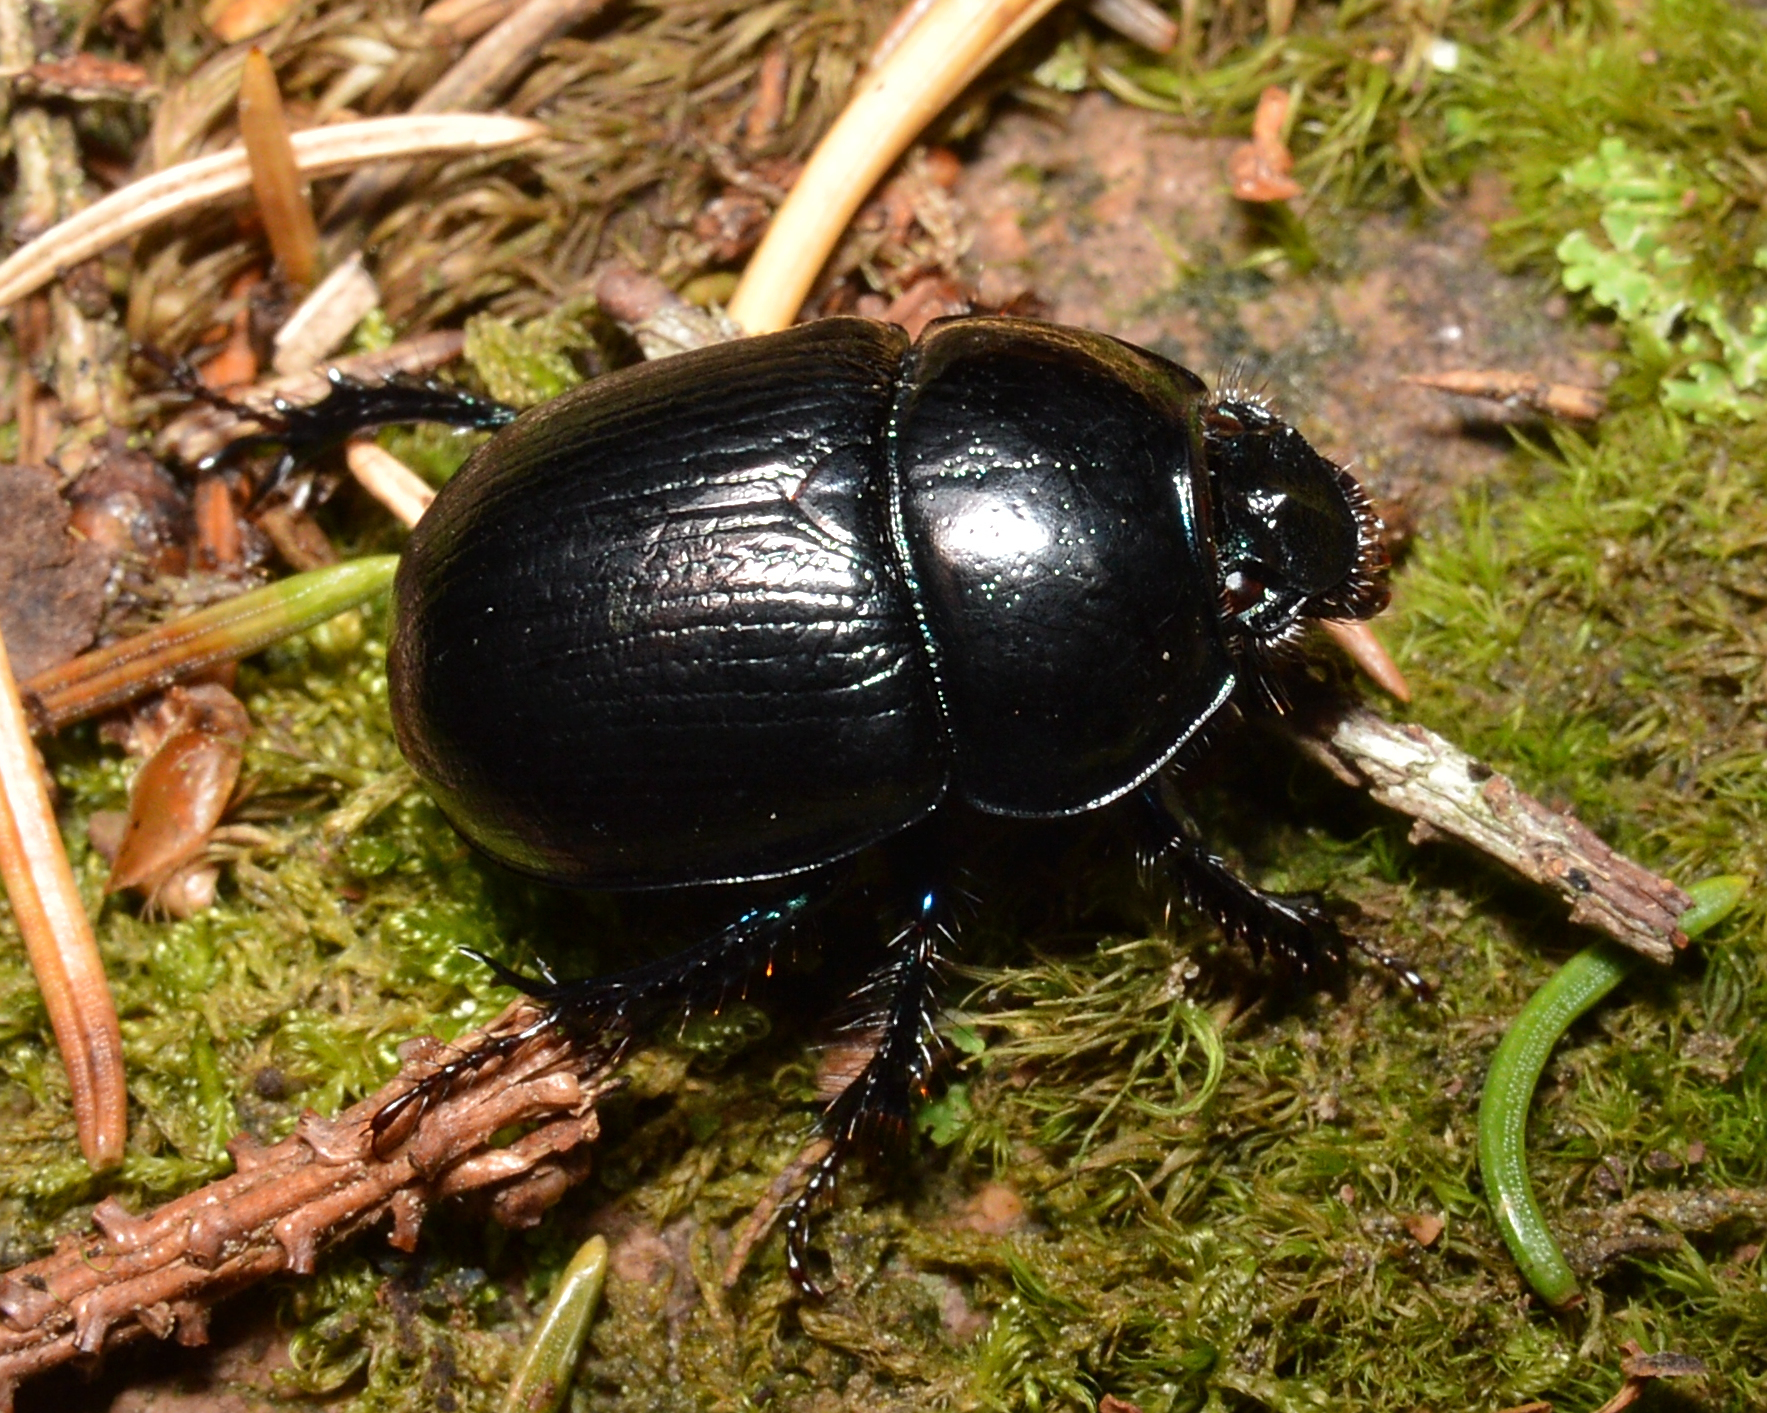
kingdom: Animalia
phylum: Arthropoda
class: Insecta
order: Coleoptera
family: Geotrupidae
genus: Anoplotrupes
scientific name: Anoplotrupes stercorosus
